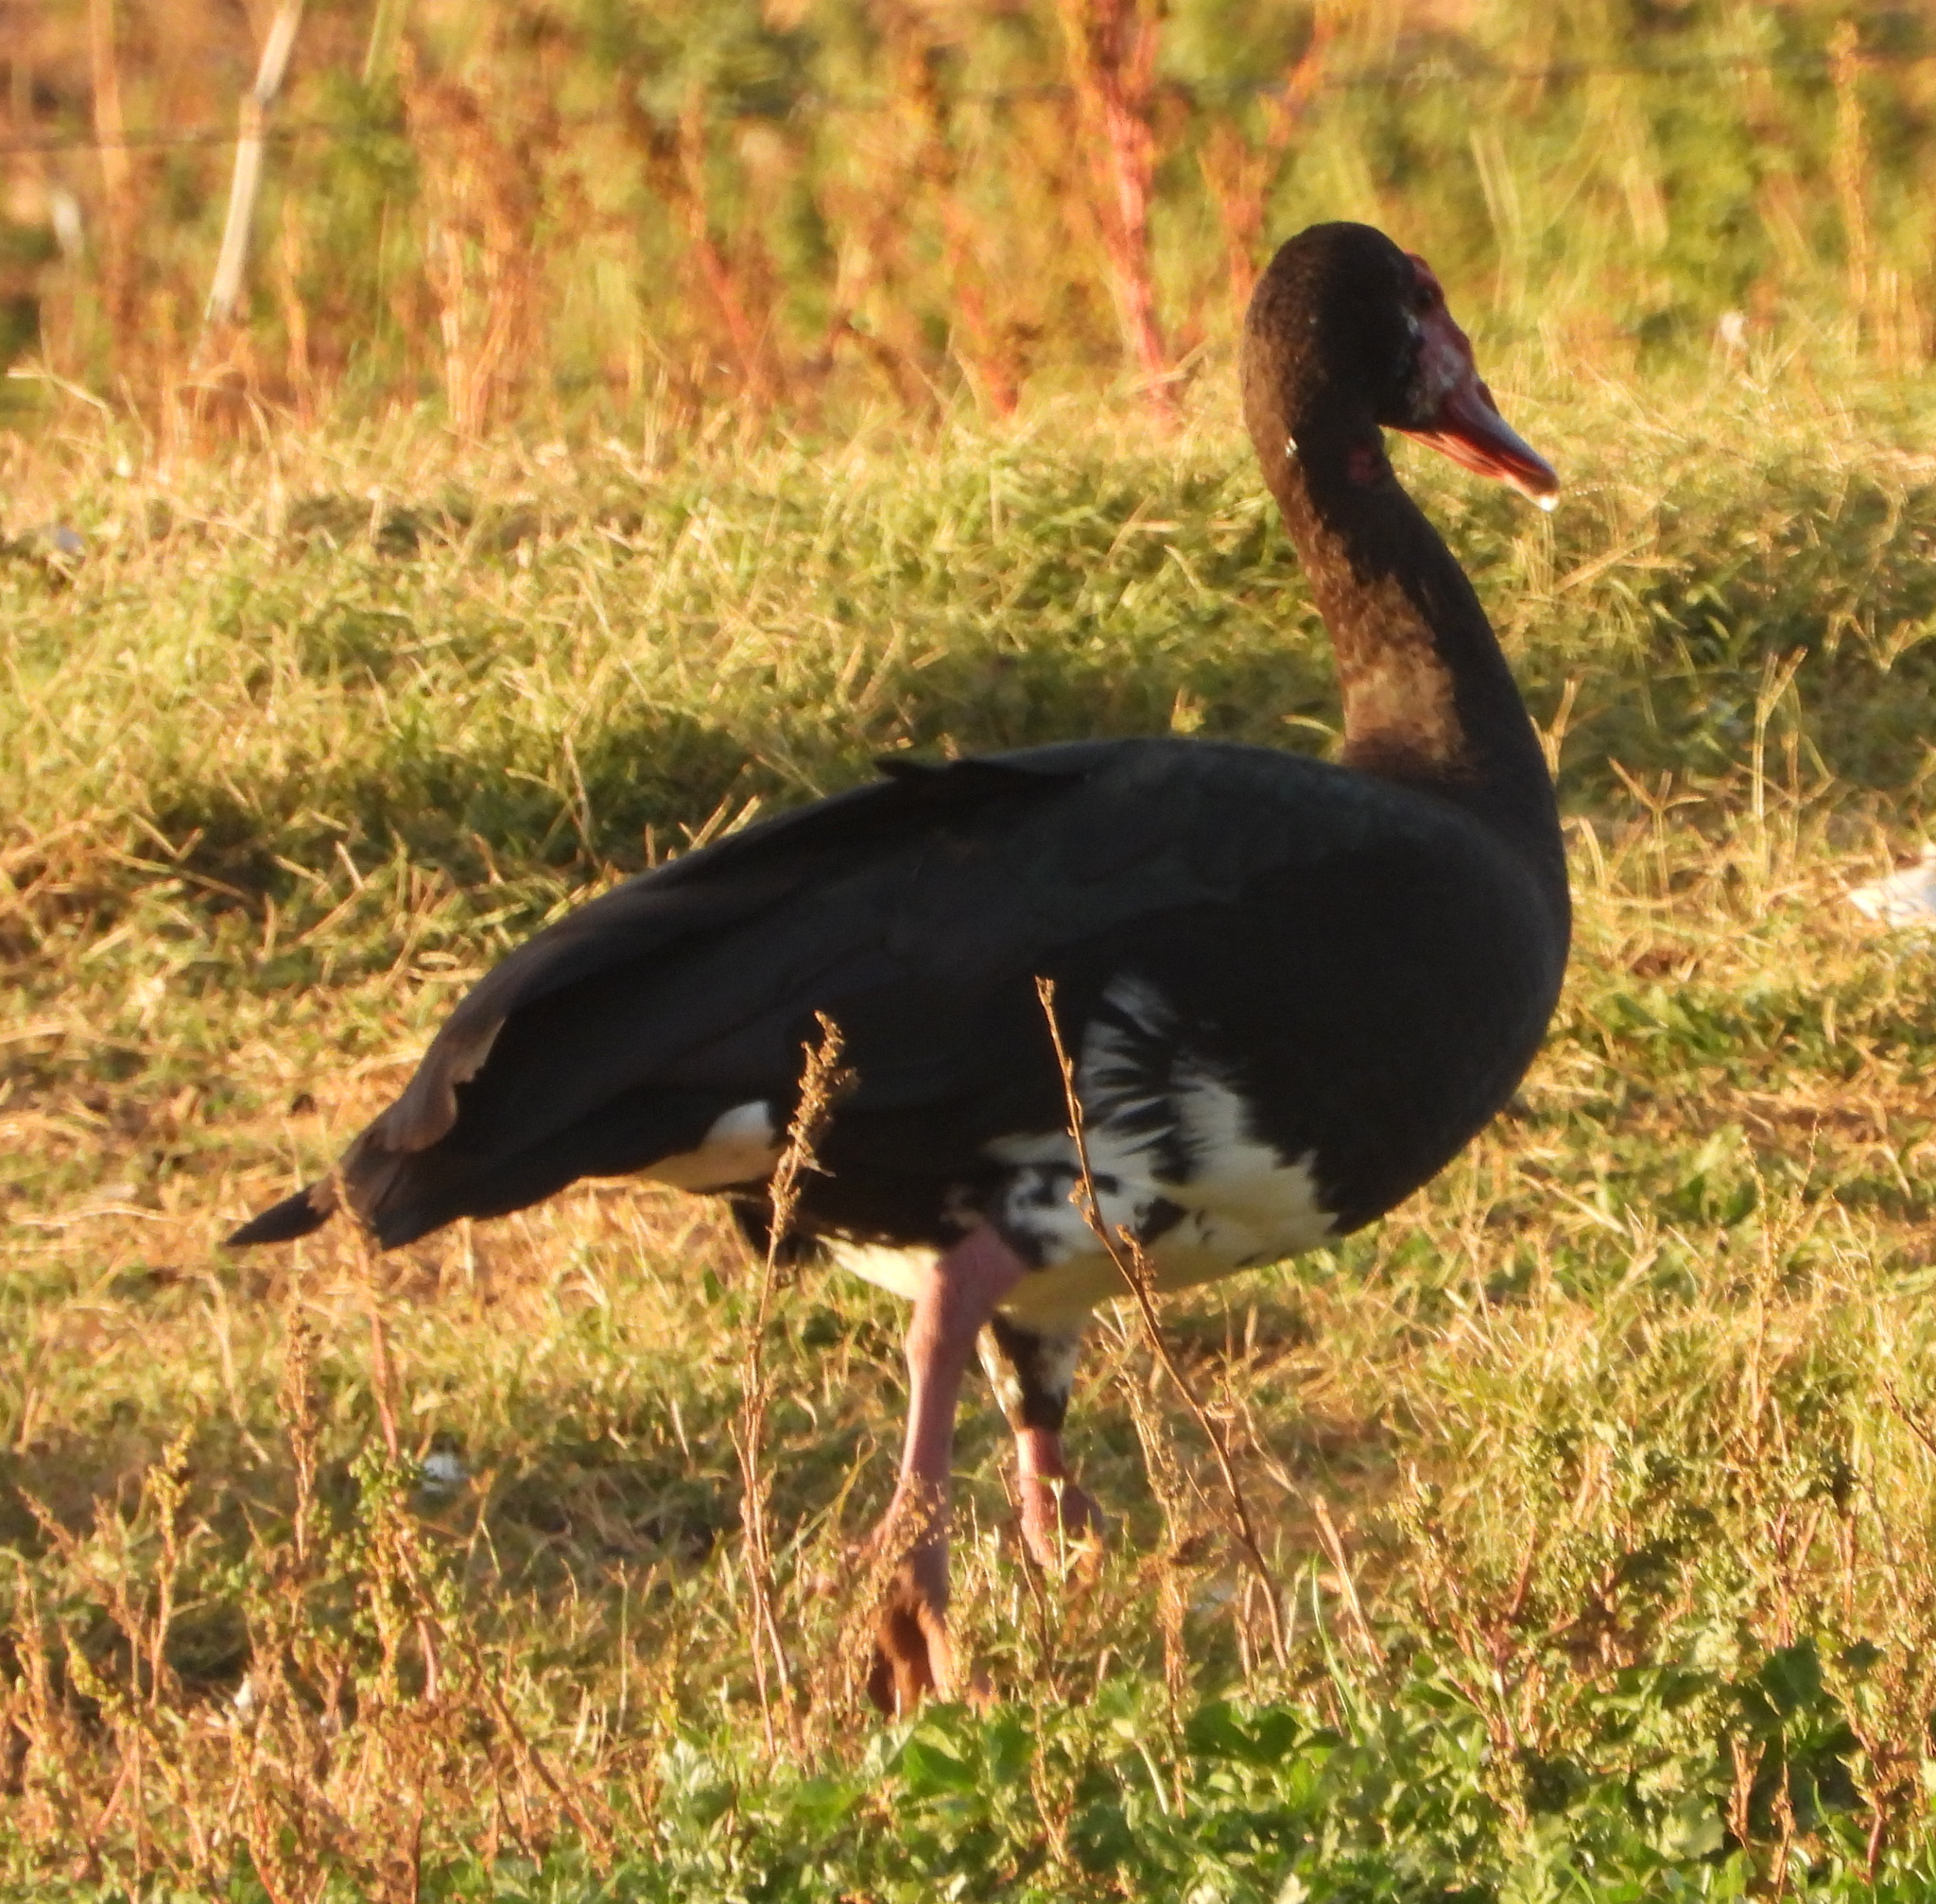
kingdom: Animalia
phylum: Chordata
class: Aves
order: Anseriformes
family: Anatidae
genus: Plectropterus
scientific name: Plectropterus gambensis
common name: Spur-winged goose
